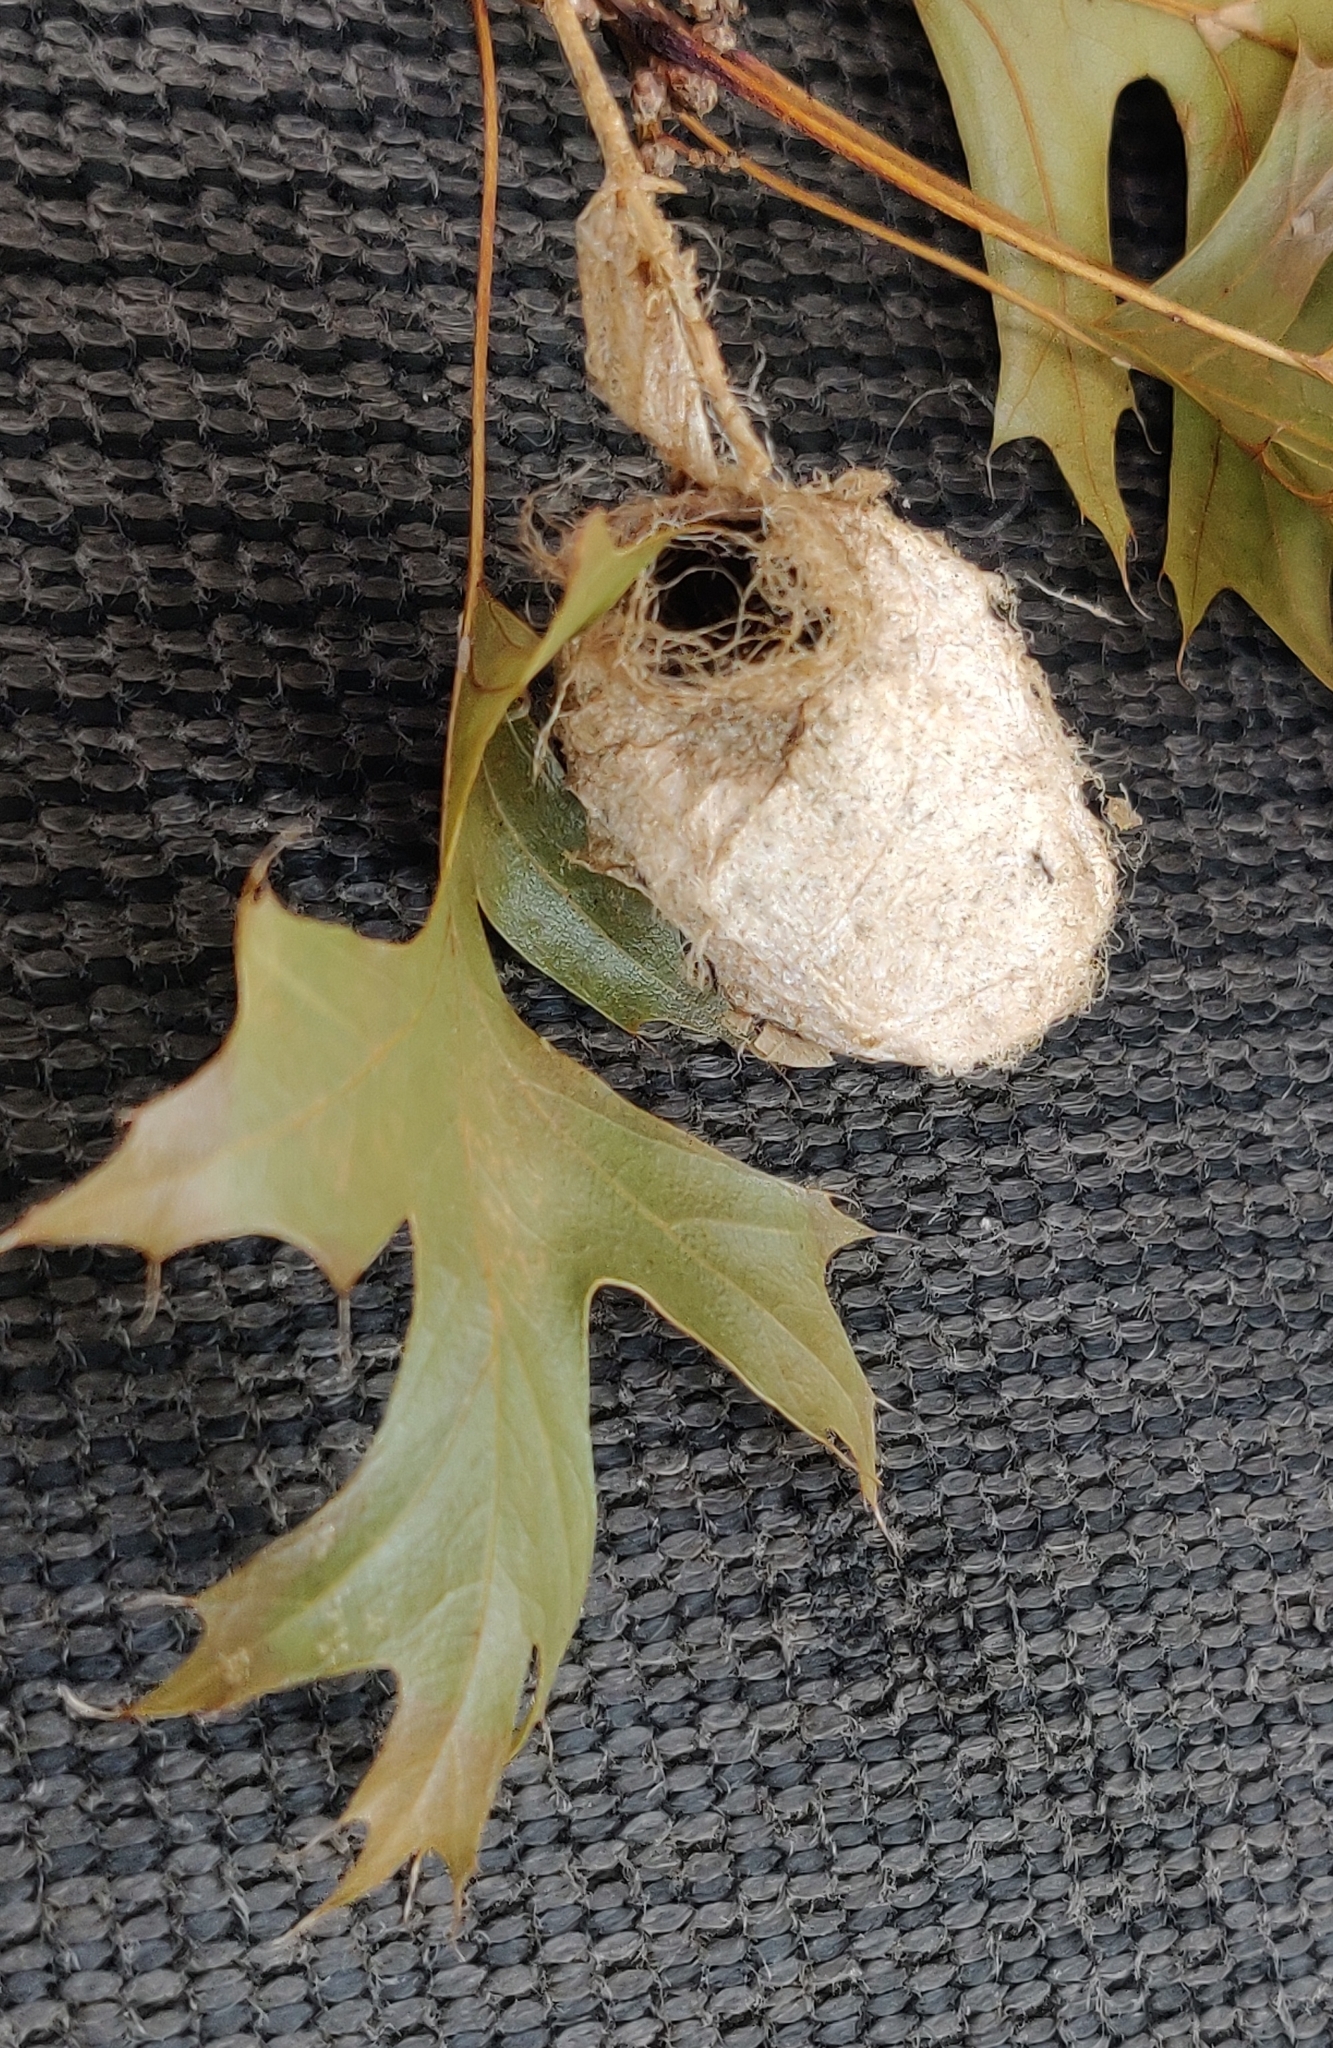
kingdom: Animalia
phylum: Arthropoda
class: Insecta
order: Lepidoptera
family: Saturniidae
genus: Antheraea
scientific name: Antheraea polyphemus
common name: Polyphemus moth
